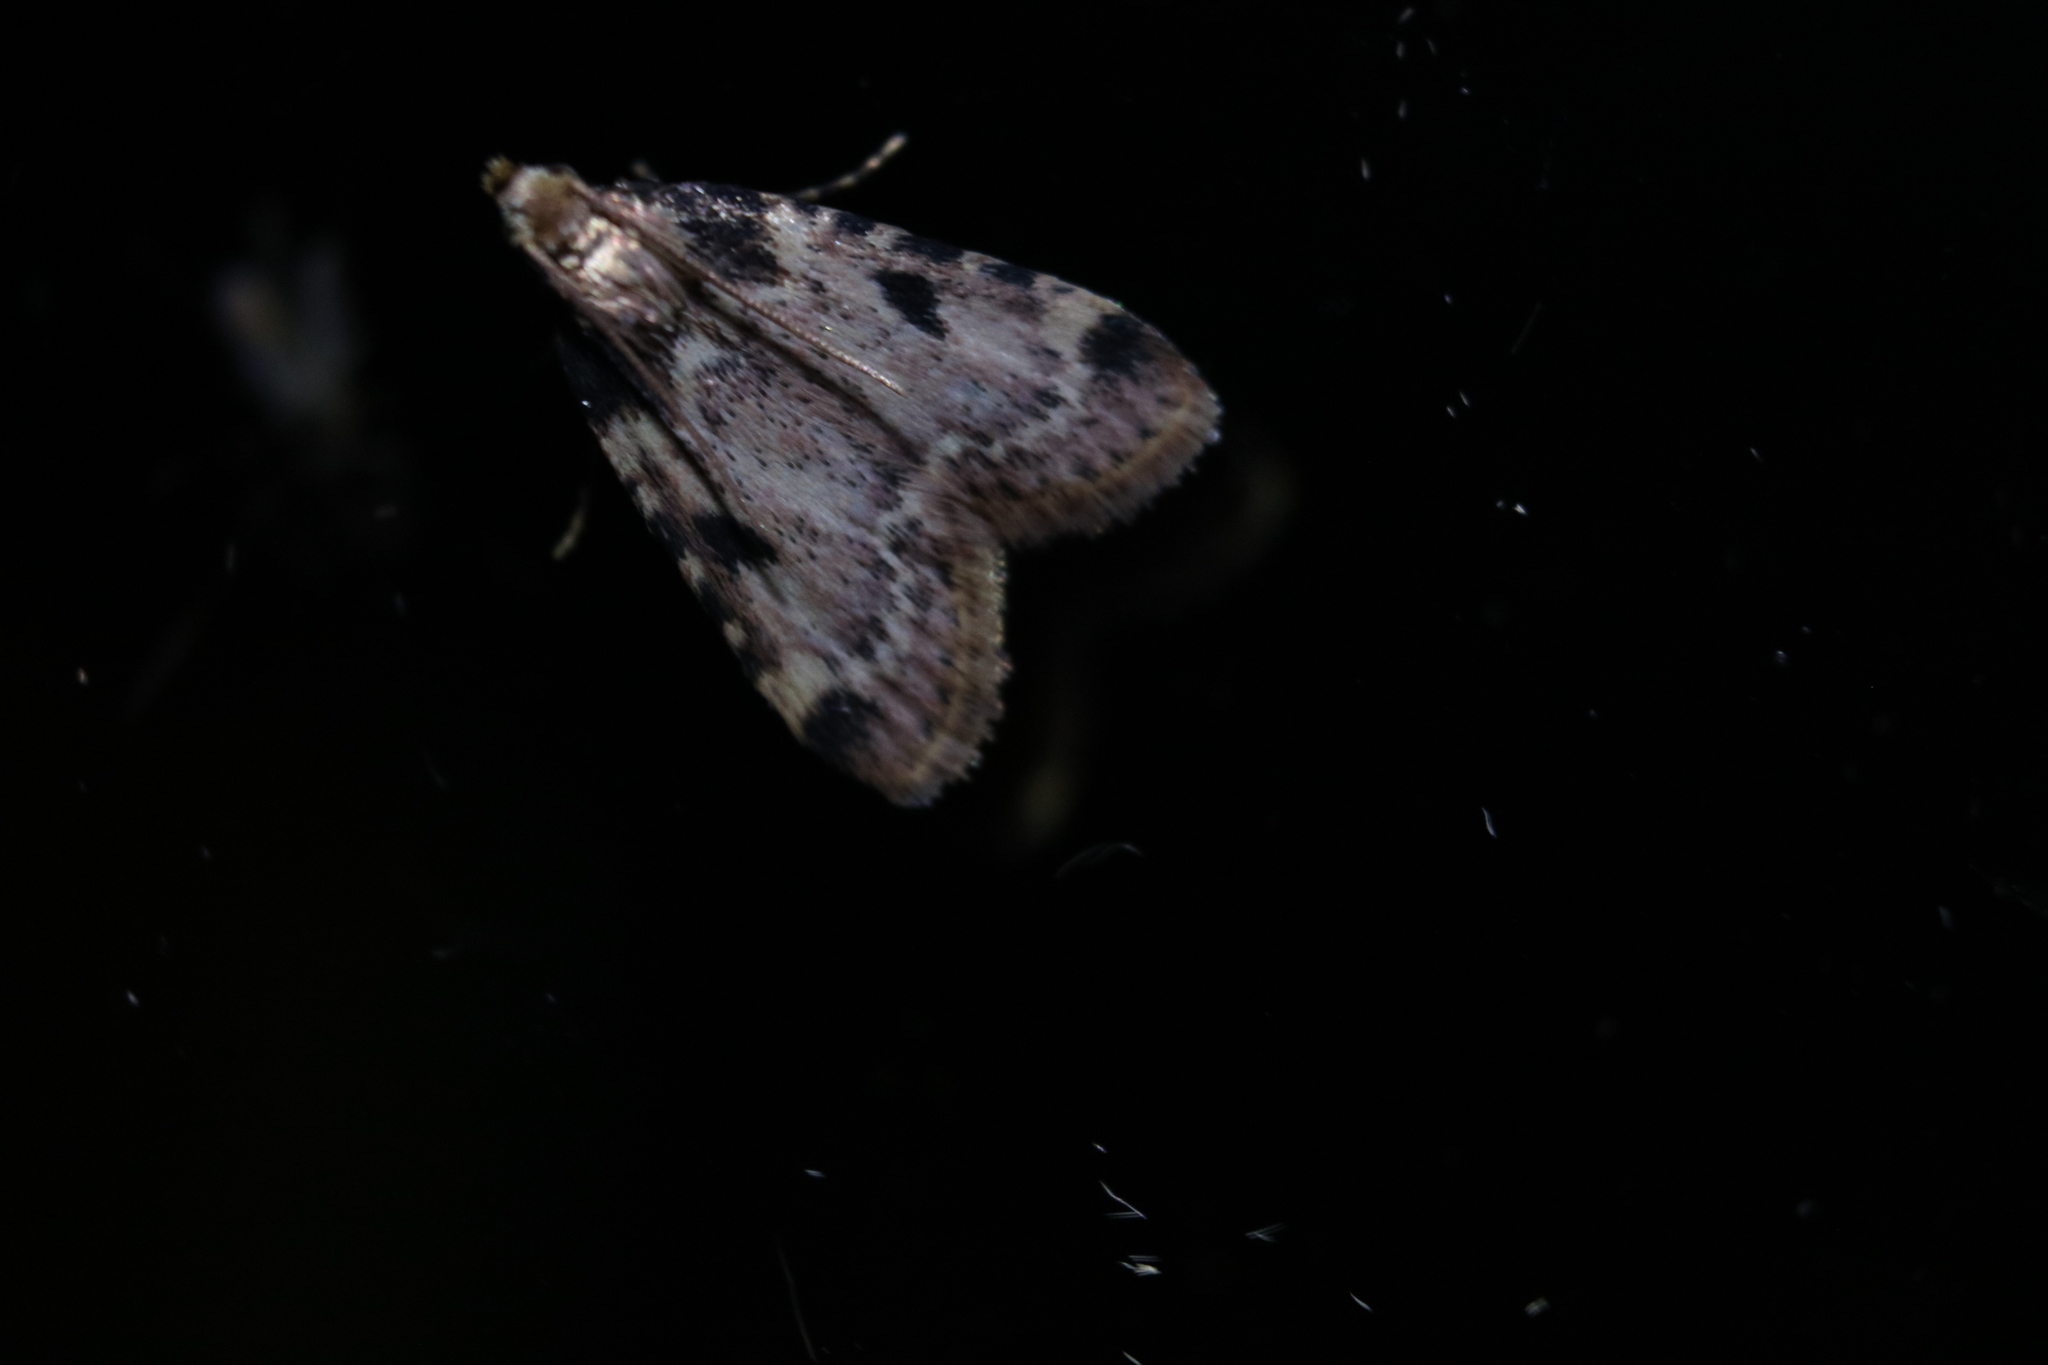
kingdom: Animalia
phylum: Arthropoda
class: Insecta
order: Lepidoptera
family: Pyralidae
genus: Aglossa
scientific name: Aglossa costiferalis
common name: Calico pyralid moth
